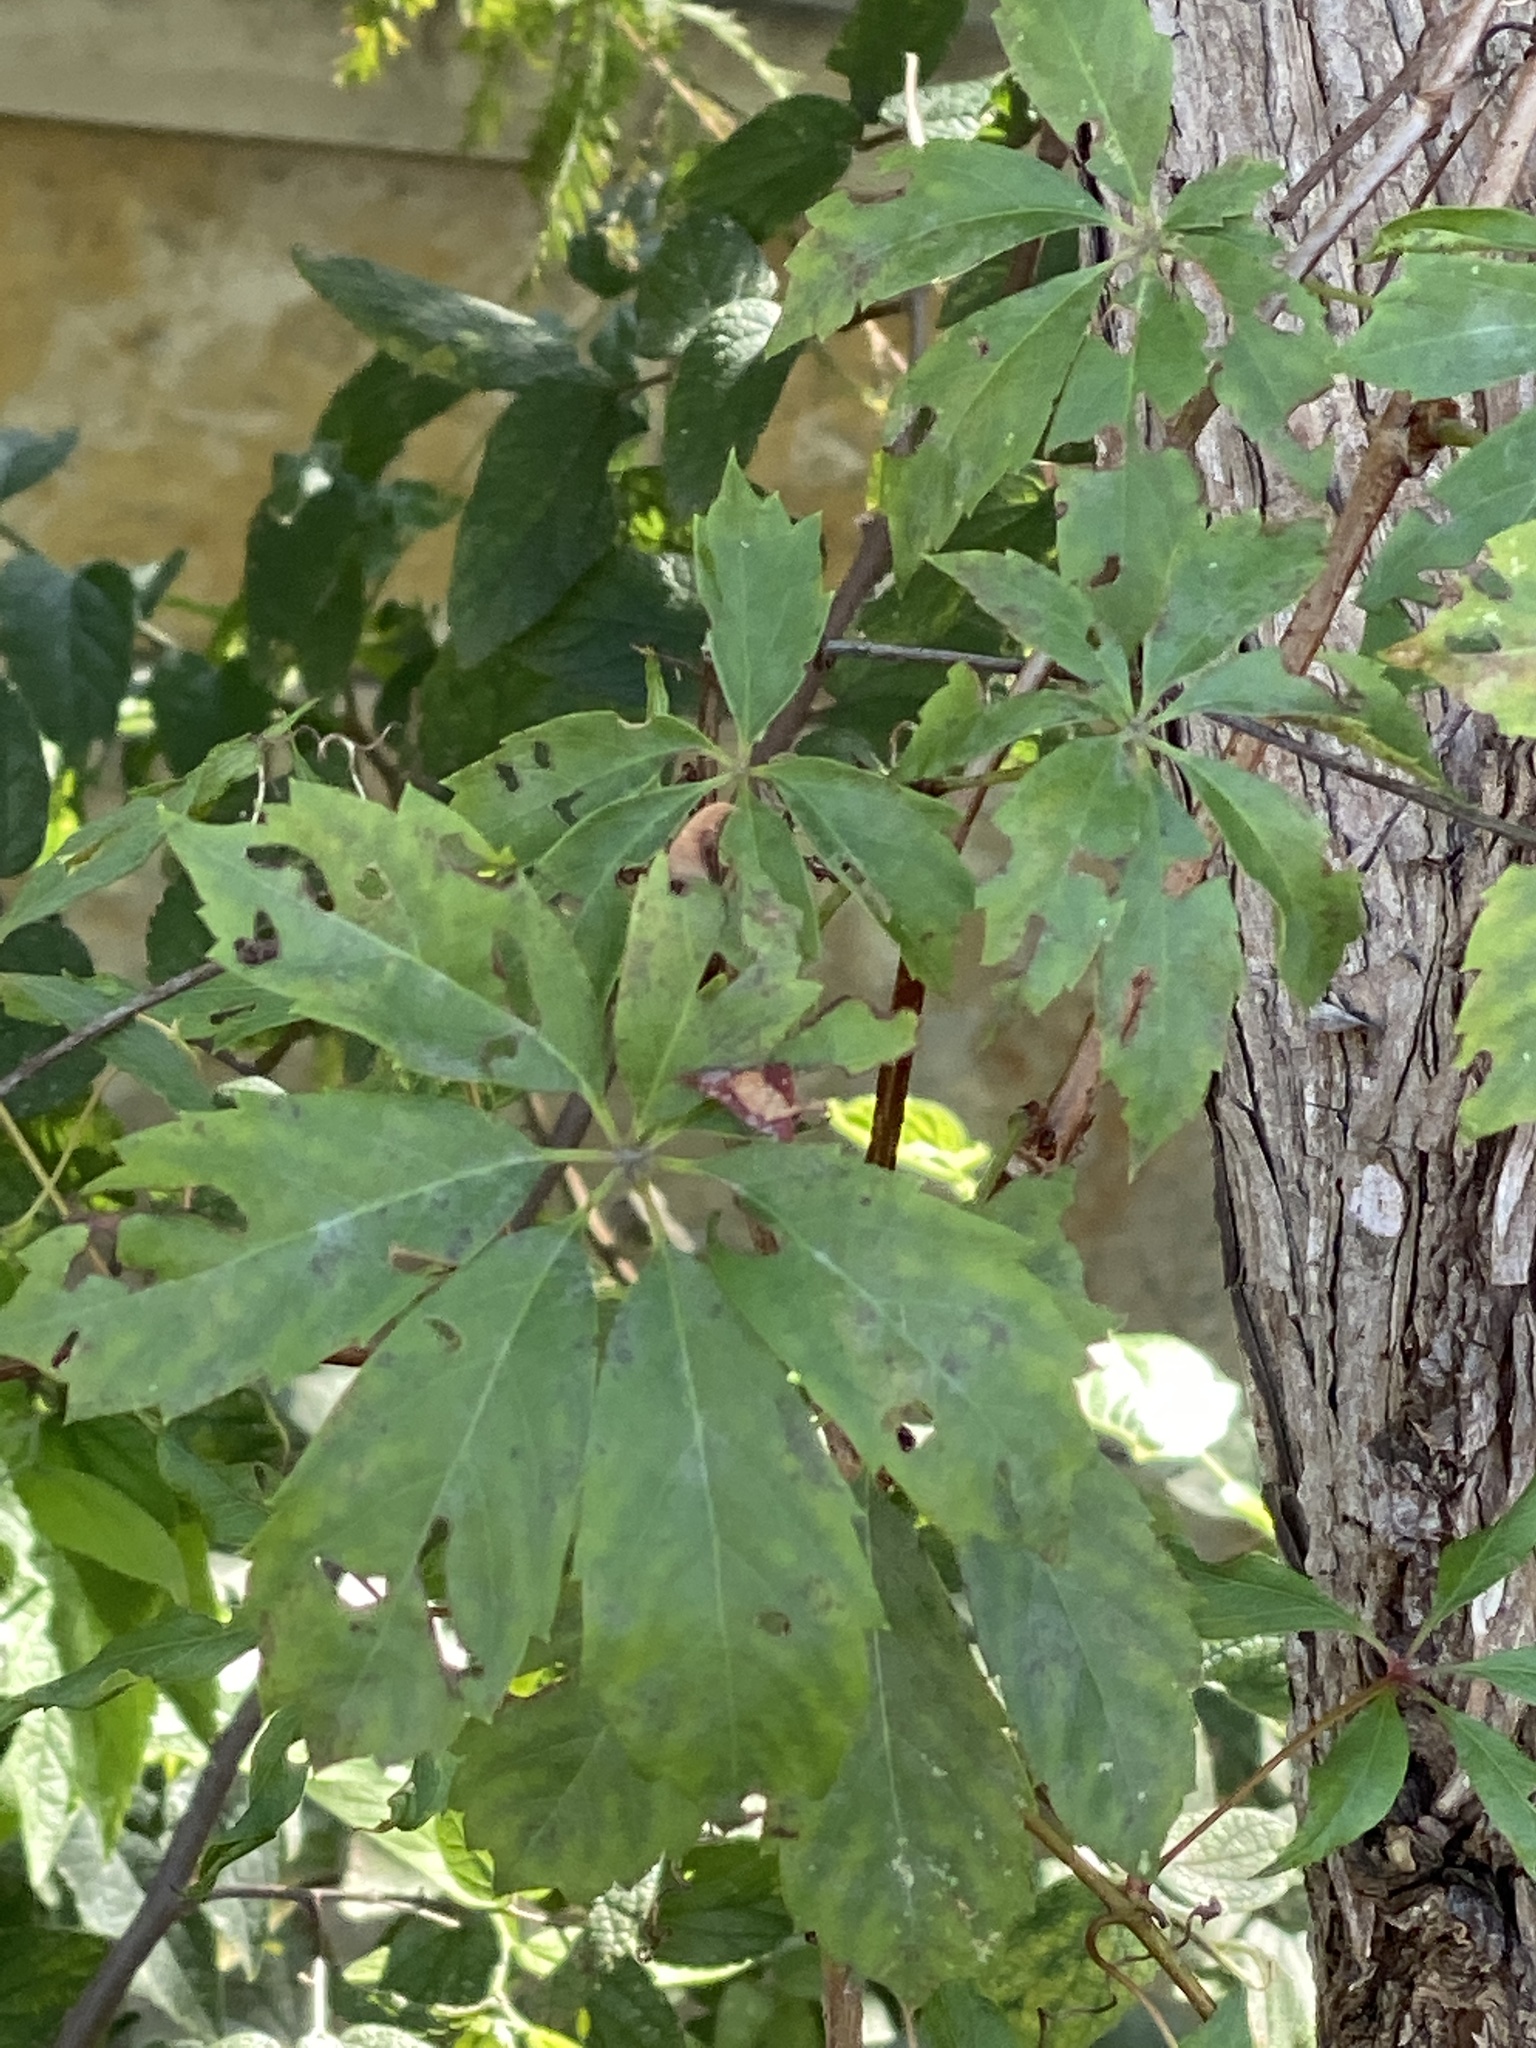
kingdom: Plantae
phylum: Tracheophyta
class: Magnoliopsida
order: Vitales
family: Vitaceae
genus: Parthenocissus
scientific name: Parthenocissus quinquefolia
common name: Virginia-creeper
